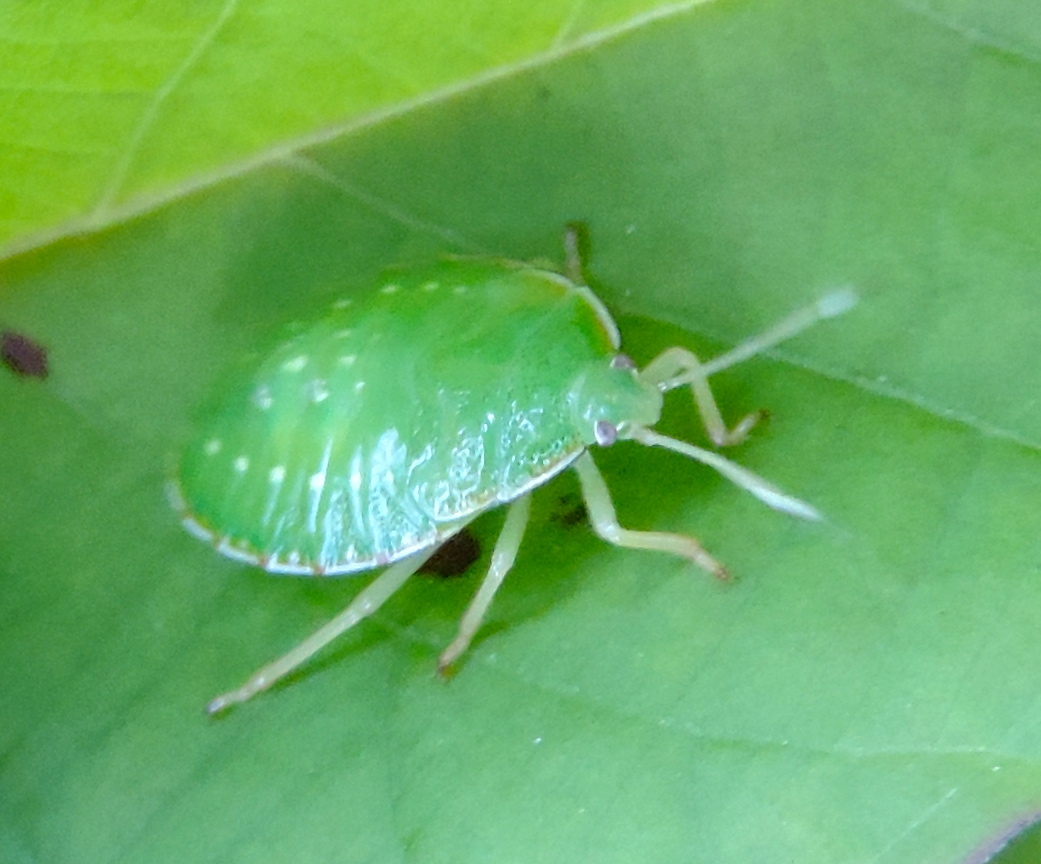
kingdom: Animalia
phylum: Arthropoda
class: Insecta
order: Hemiptera
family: Pentatomidae
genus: Edessa
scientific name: Edessa bifida
